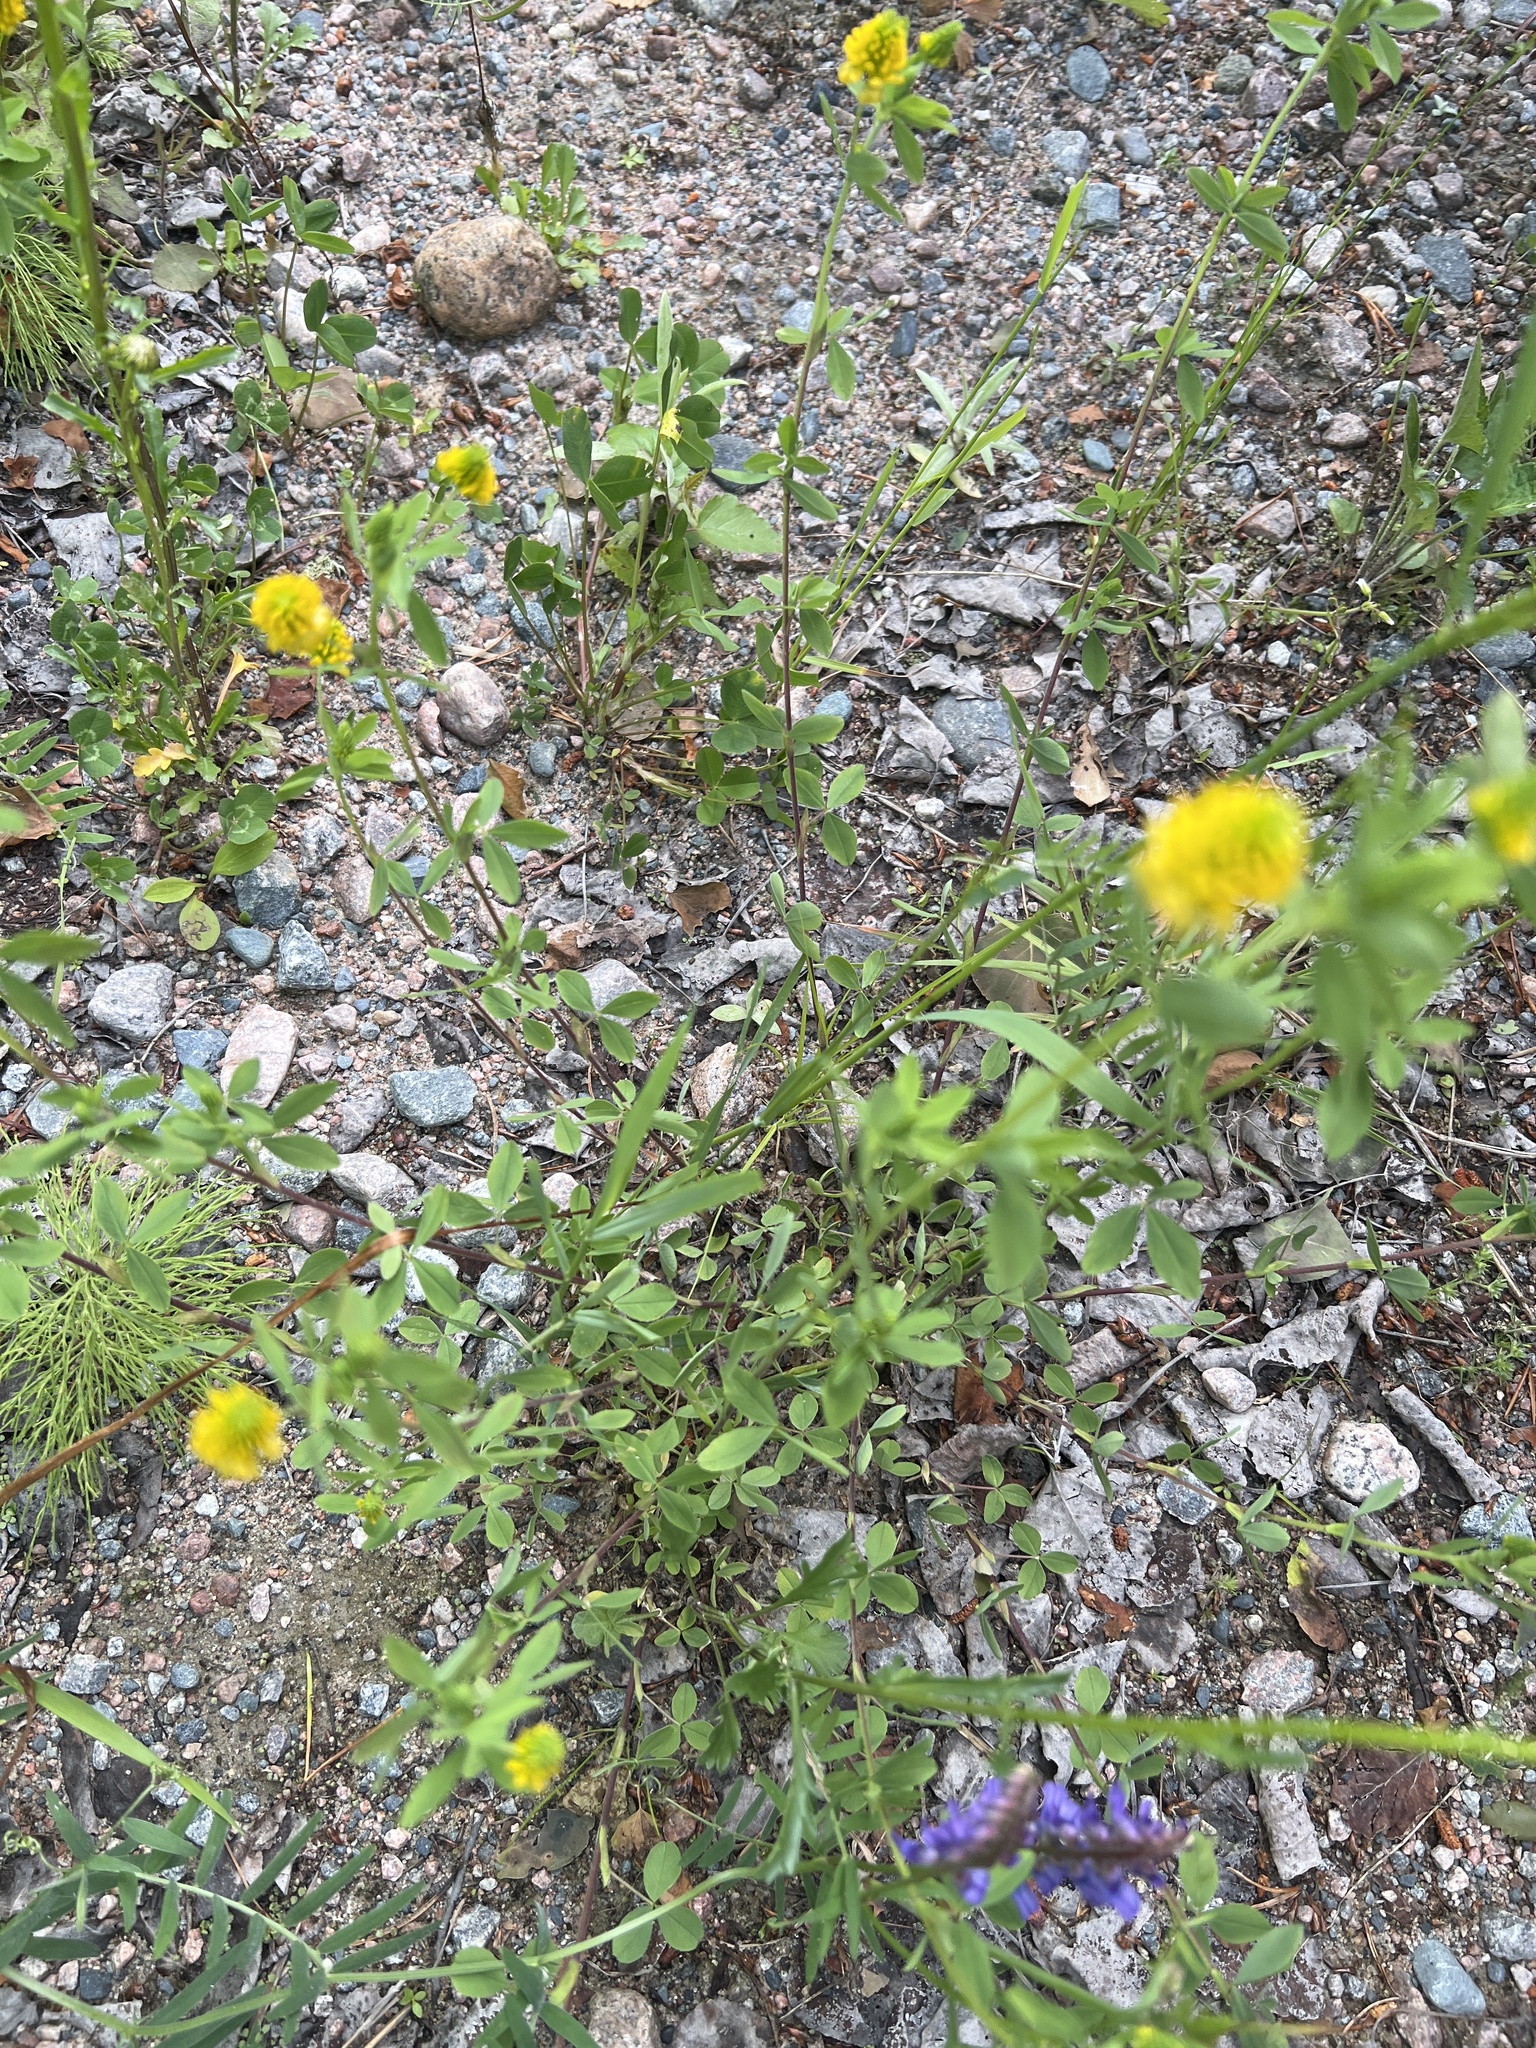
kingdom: Plantae
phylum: Tracheophyta
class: Magnoliopsida
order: Fabales
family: Fabaceae
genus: Trifolium
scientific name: Trifolium aureum
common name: Golden clover
